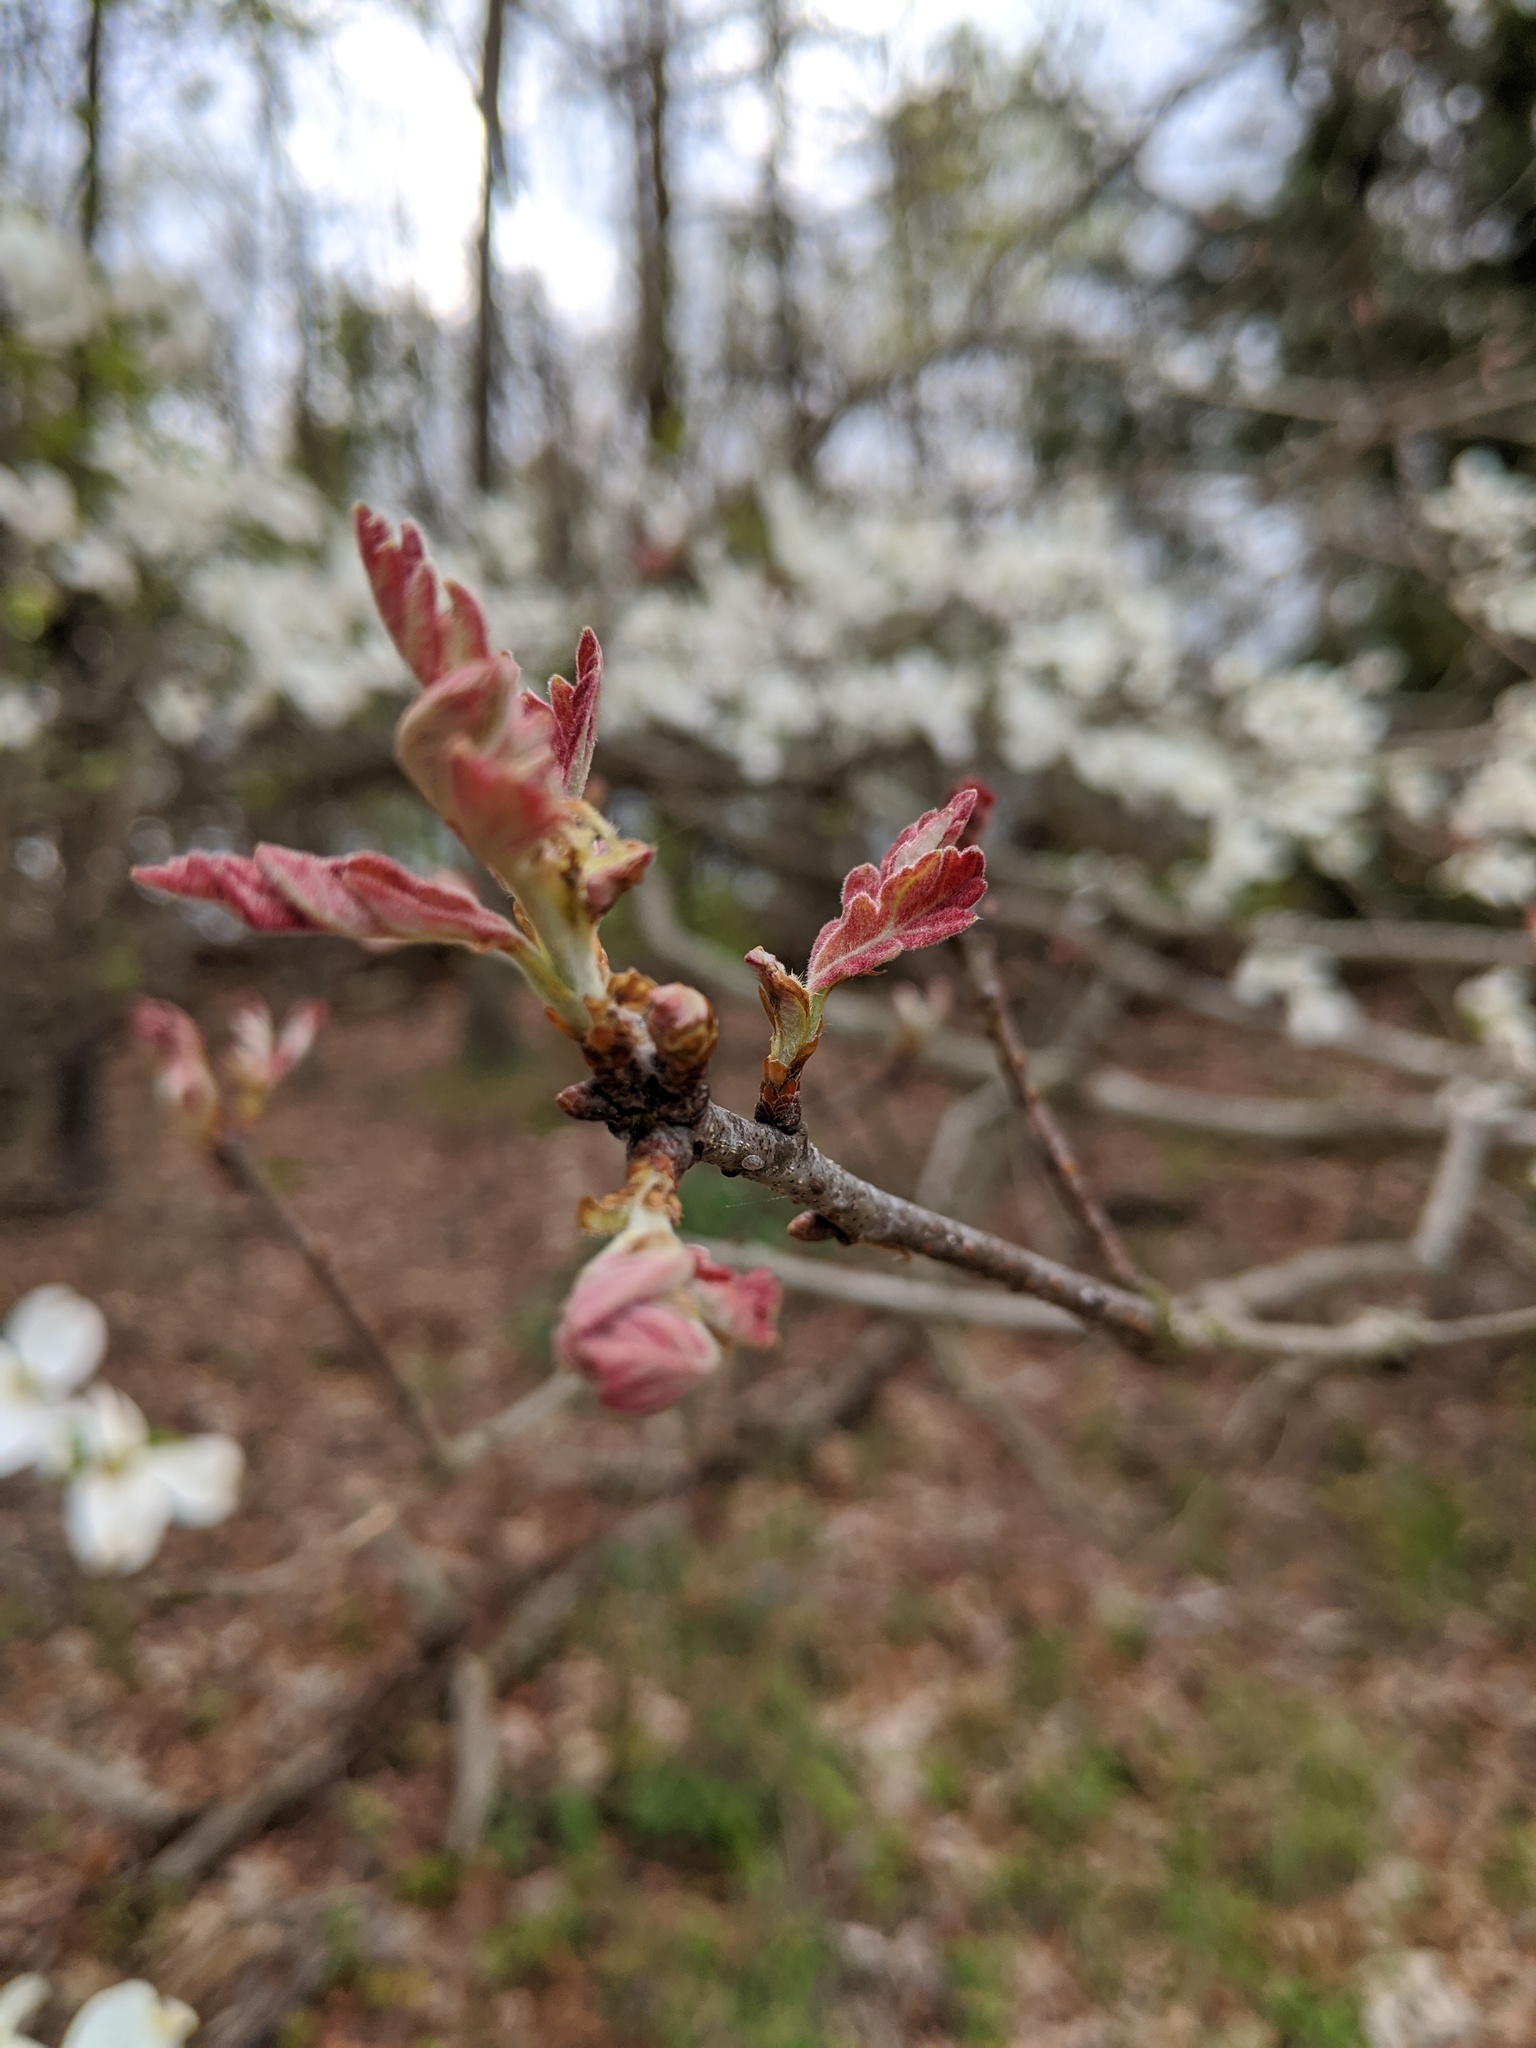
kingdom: Plantae
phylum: Tracheophyta
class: Magnoliopsida
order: Cornales
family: Cornaceae
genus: Cornus
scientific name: Cornus florida
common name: Flowering dogwood
